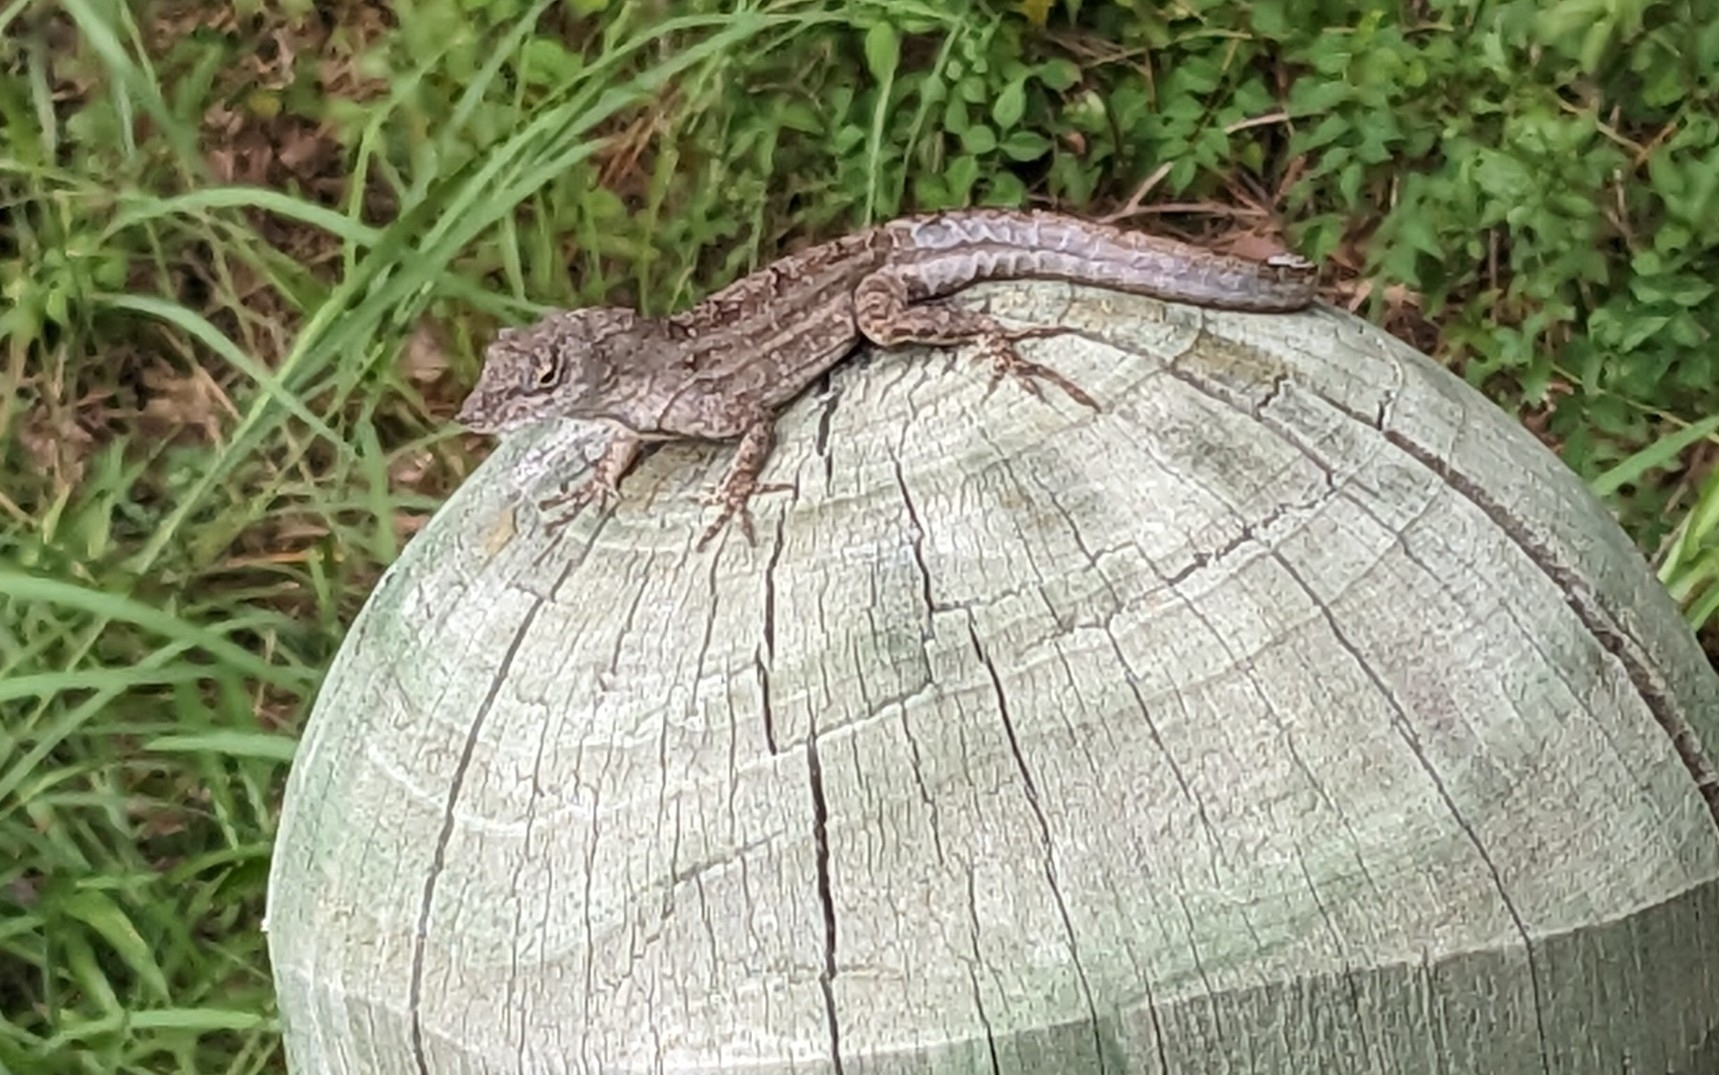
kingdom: Animalia
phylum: Chordata
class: Squamata
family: Dactyloidae
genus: Anolis
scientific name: Anolis sagrei
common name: Brown anole
